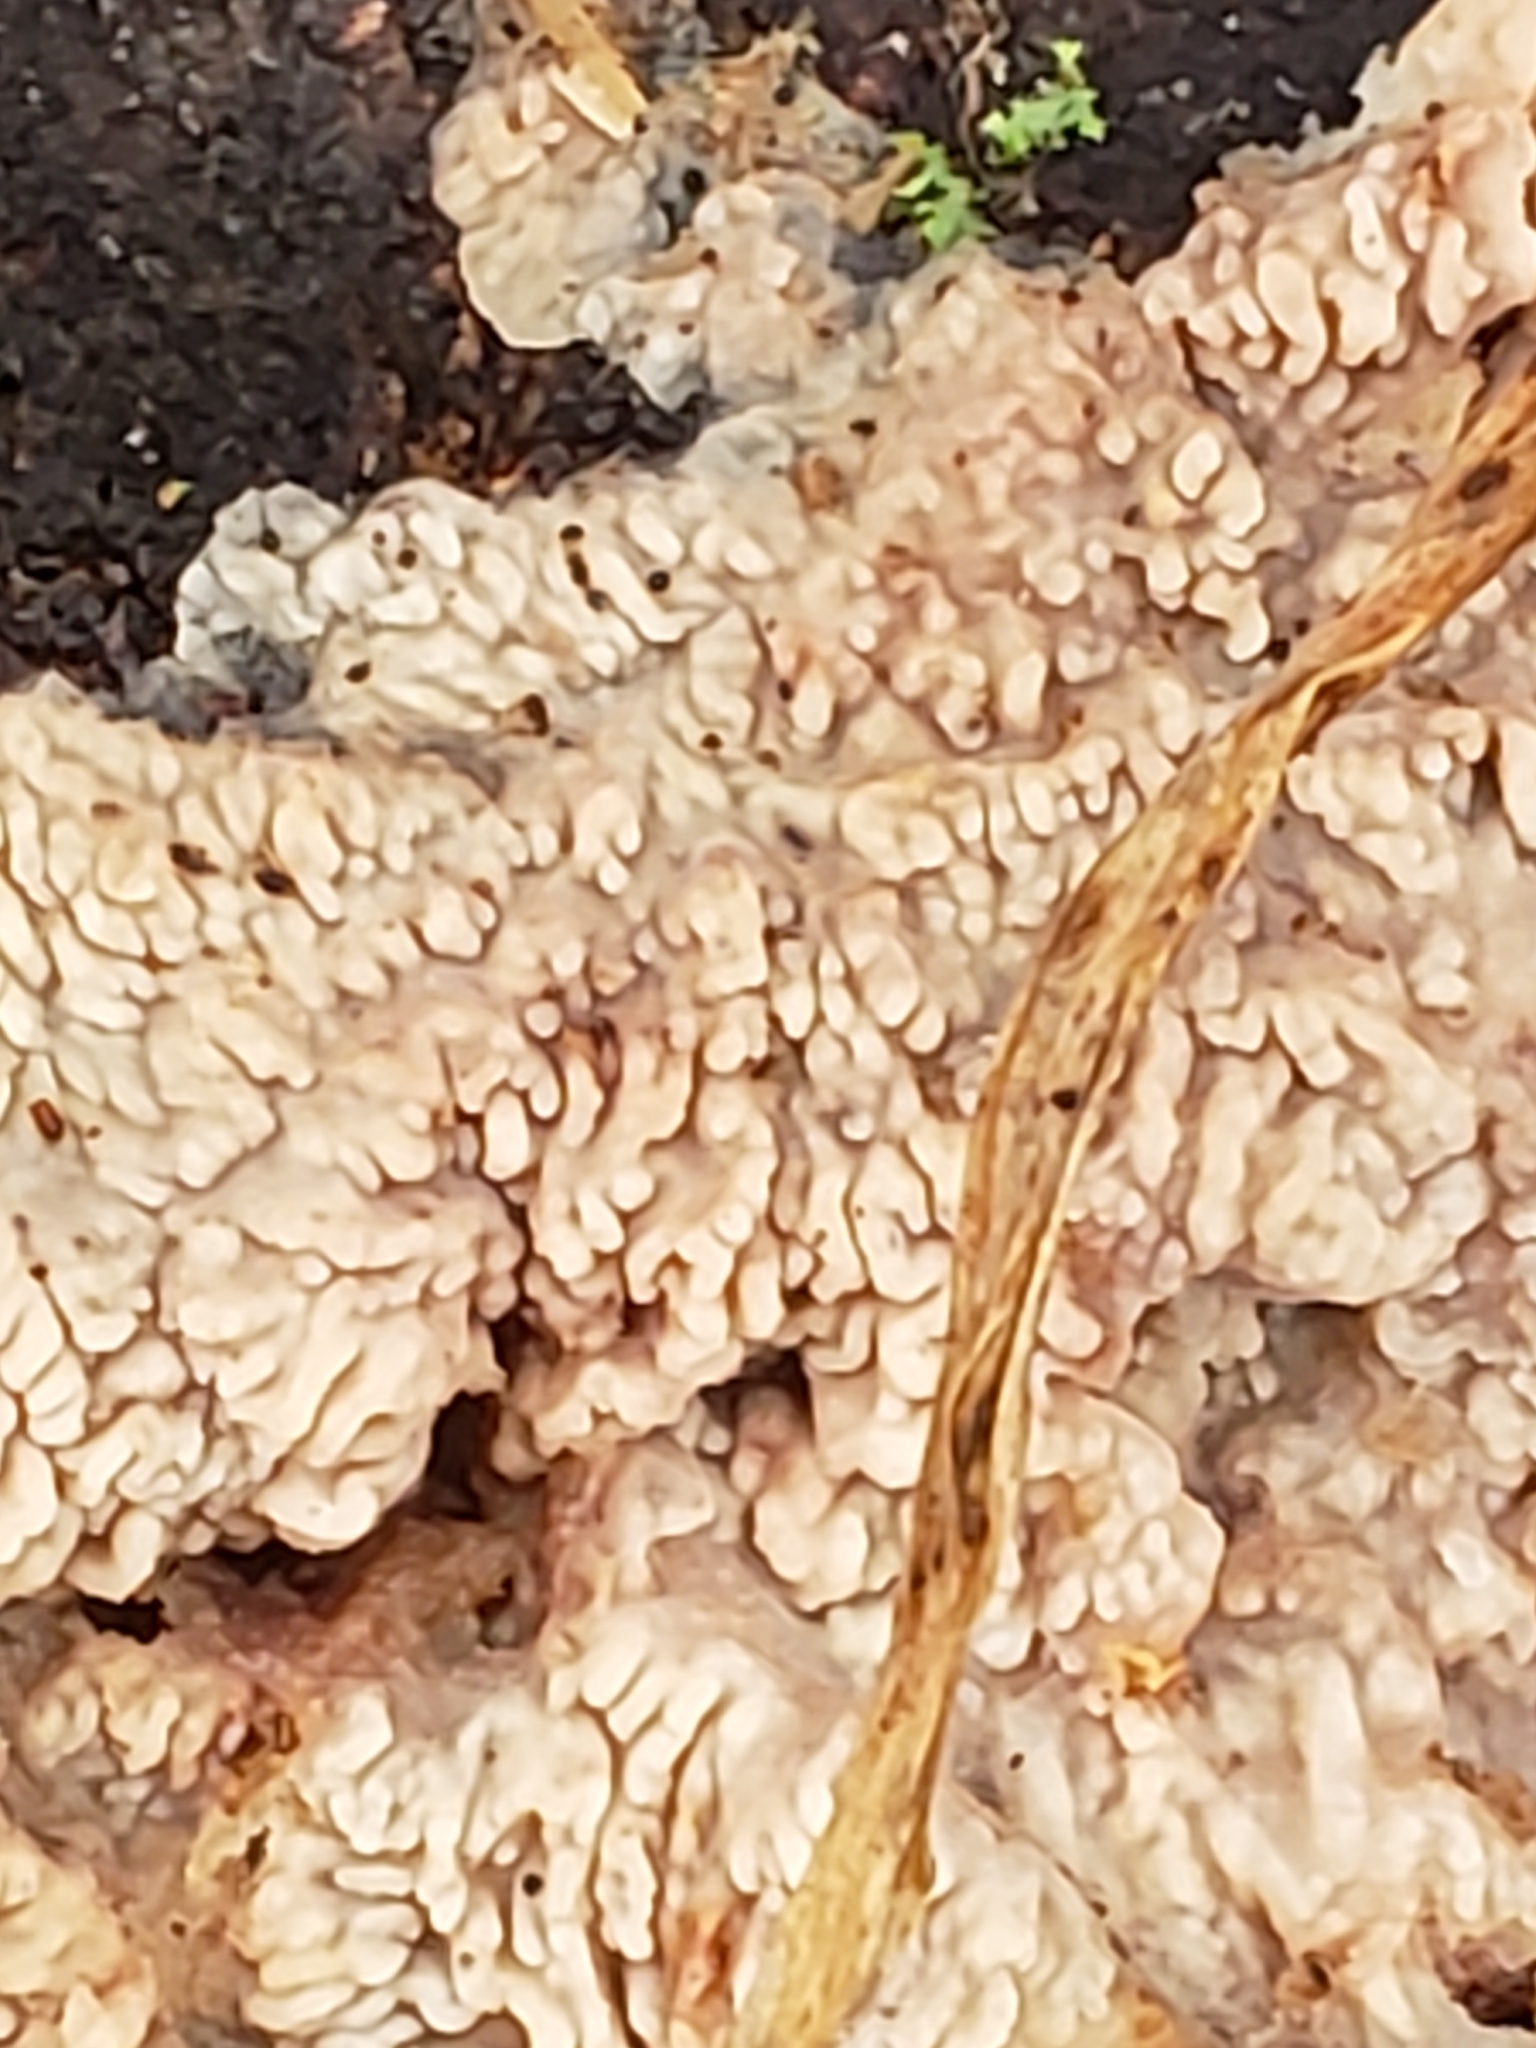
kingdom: Fungi
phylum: Basidiomycota
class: Agaricomycetes
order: Polyporales
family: Meruliaceae
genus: Phlebia
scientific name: Phlebia radiata
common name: Wrinkled crust
